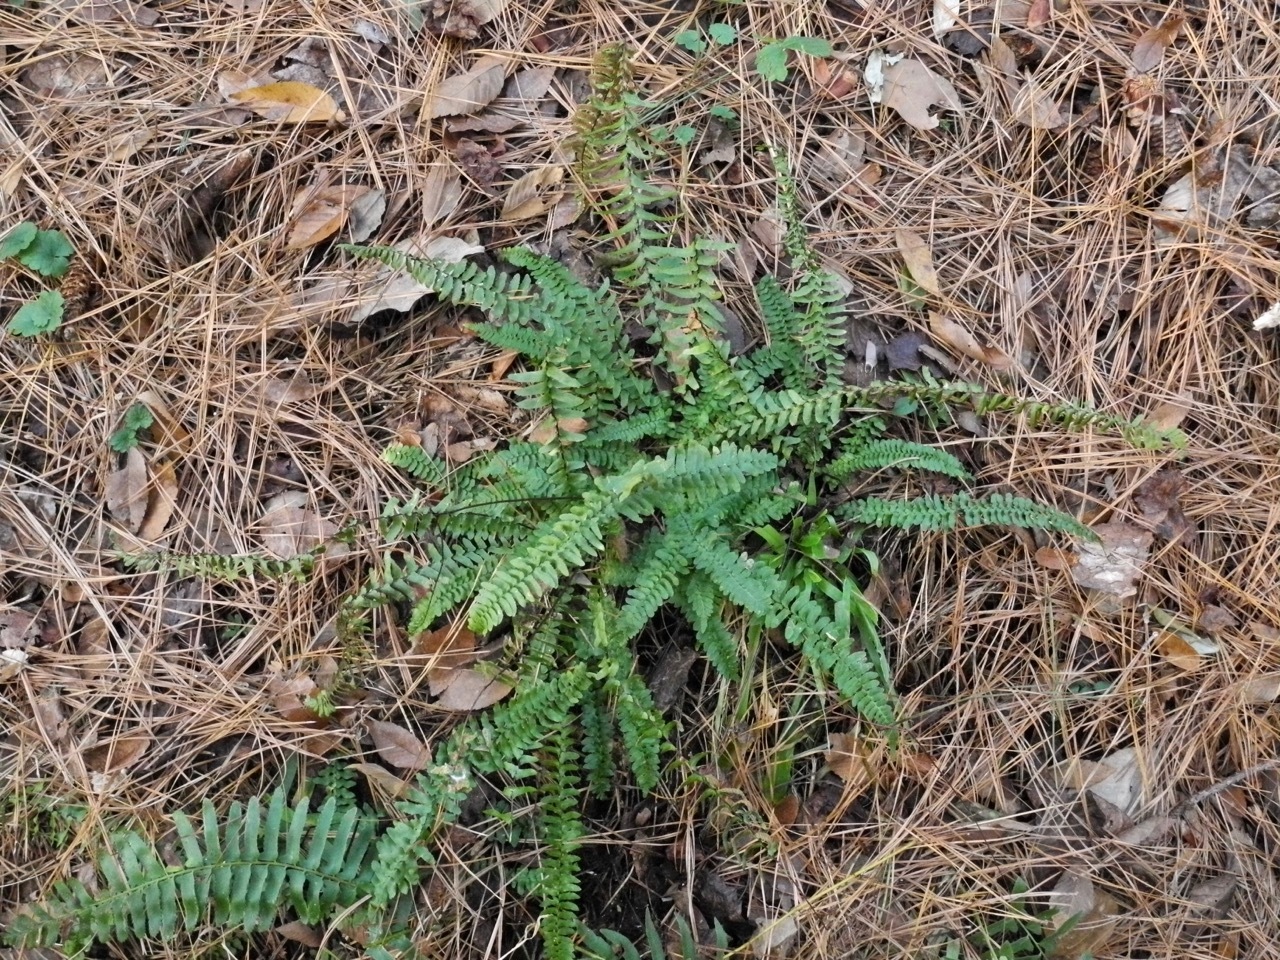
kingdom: Plantae
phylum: Tracheophyta
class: Polypodiopsida
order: Polypodiales
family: Aspleniaceae
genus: Asplenium
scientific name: Asplenium platyneuron
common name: Ebony spleenwort
